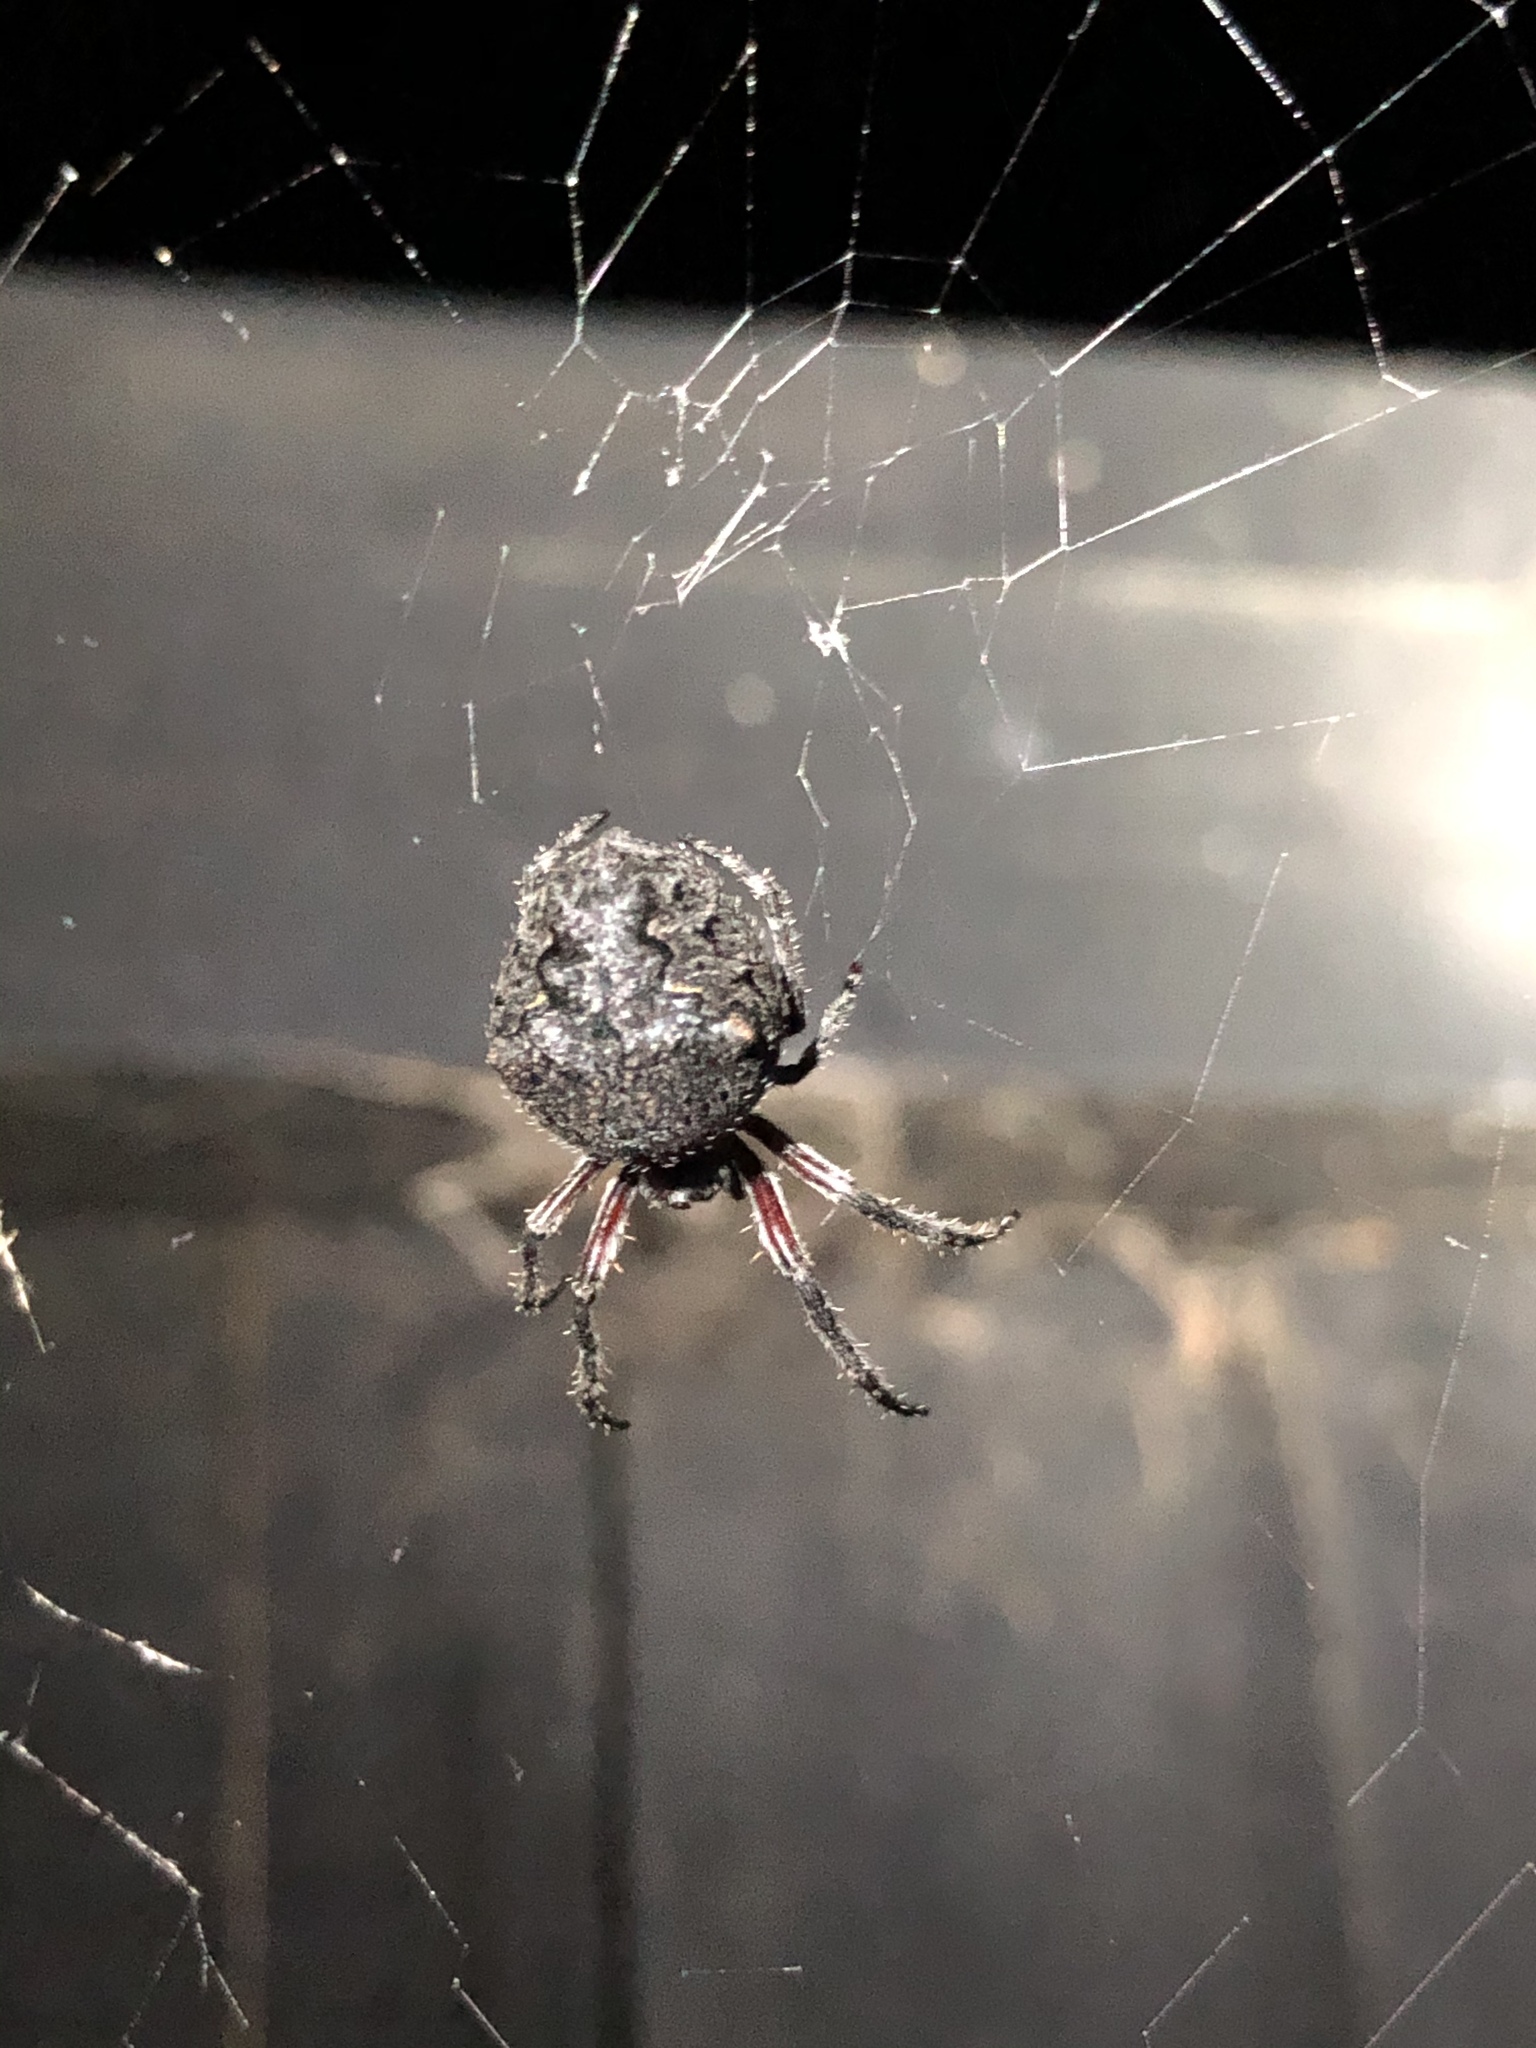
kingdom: Animalia
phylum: Arthropoda
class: Arachnida
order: Araneae
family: Araneidae
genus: Eriophora
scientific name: Eriophora pustulosa
